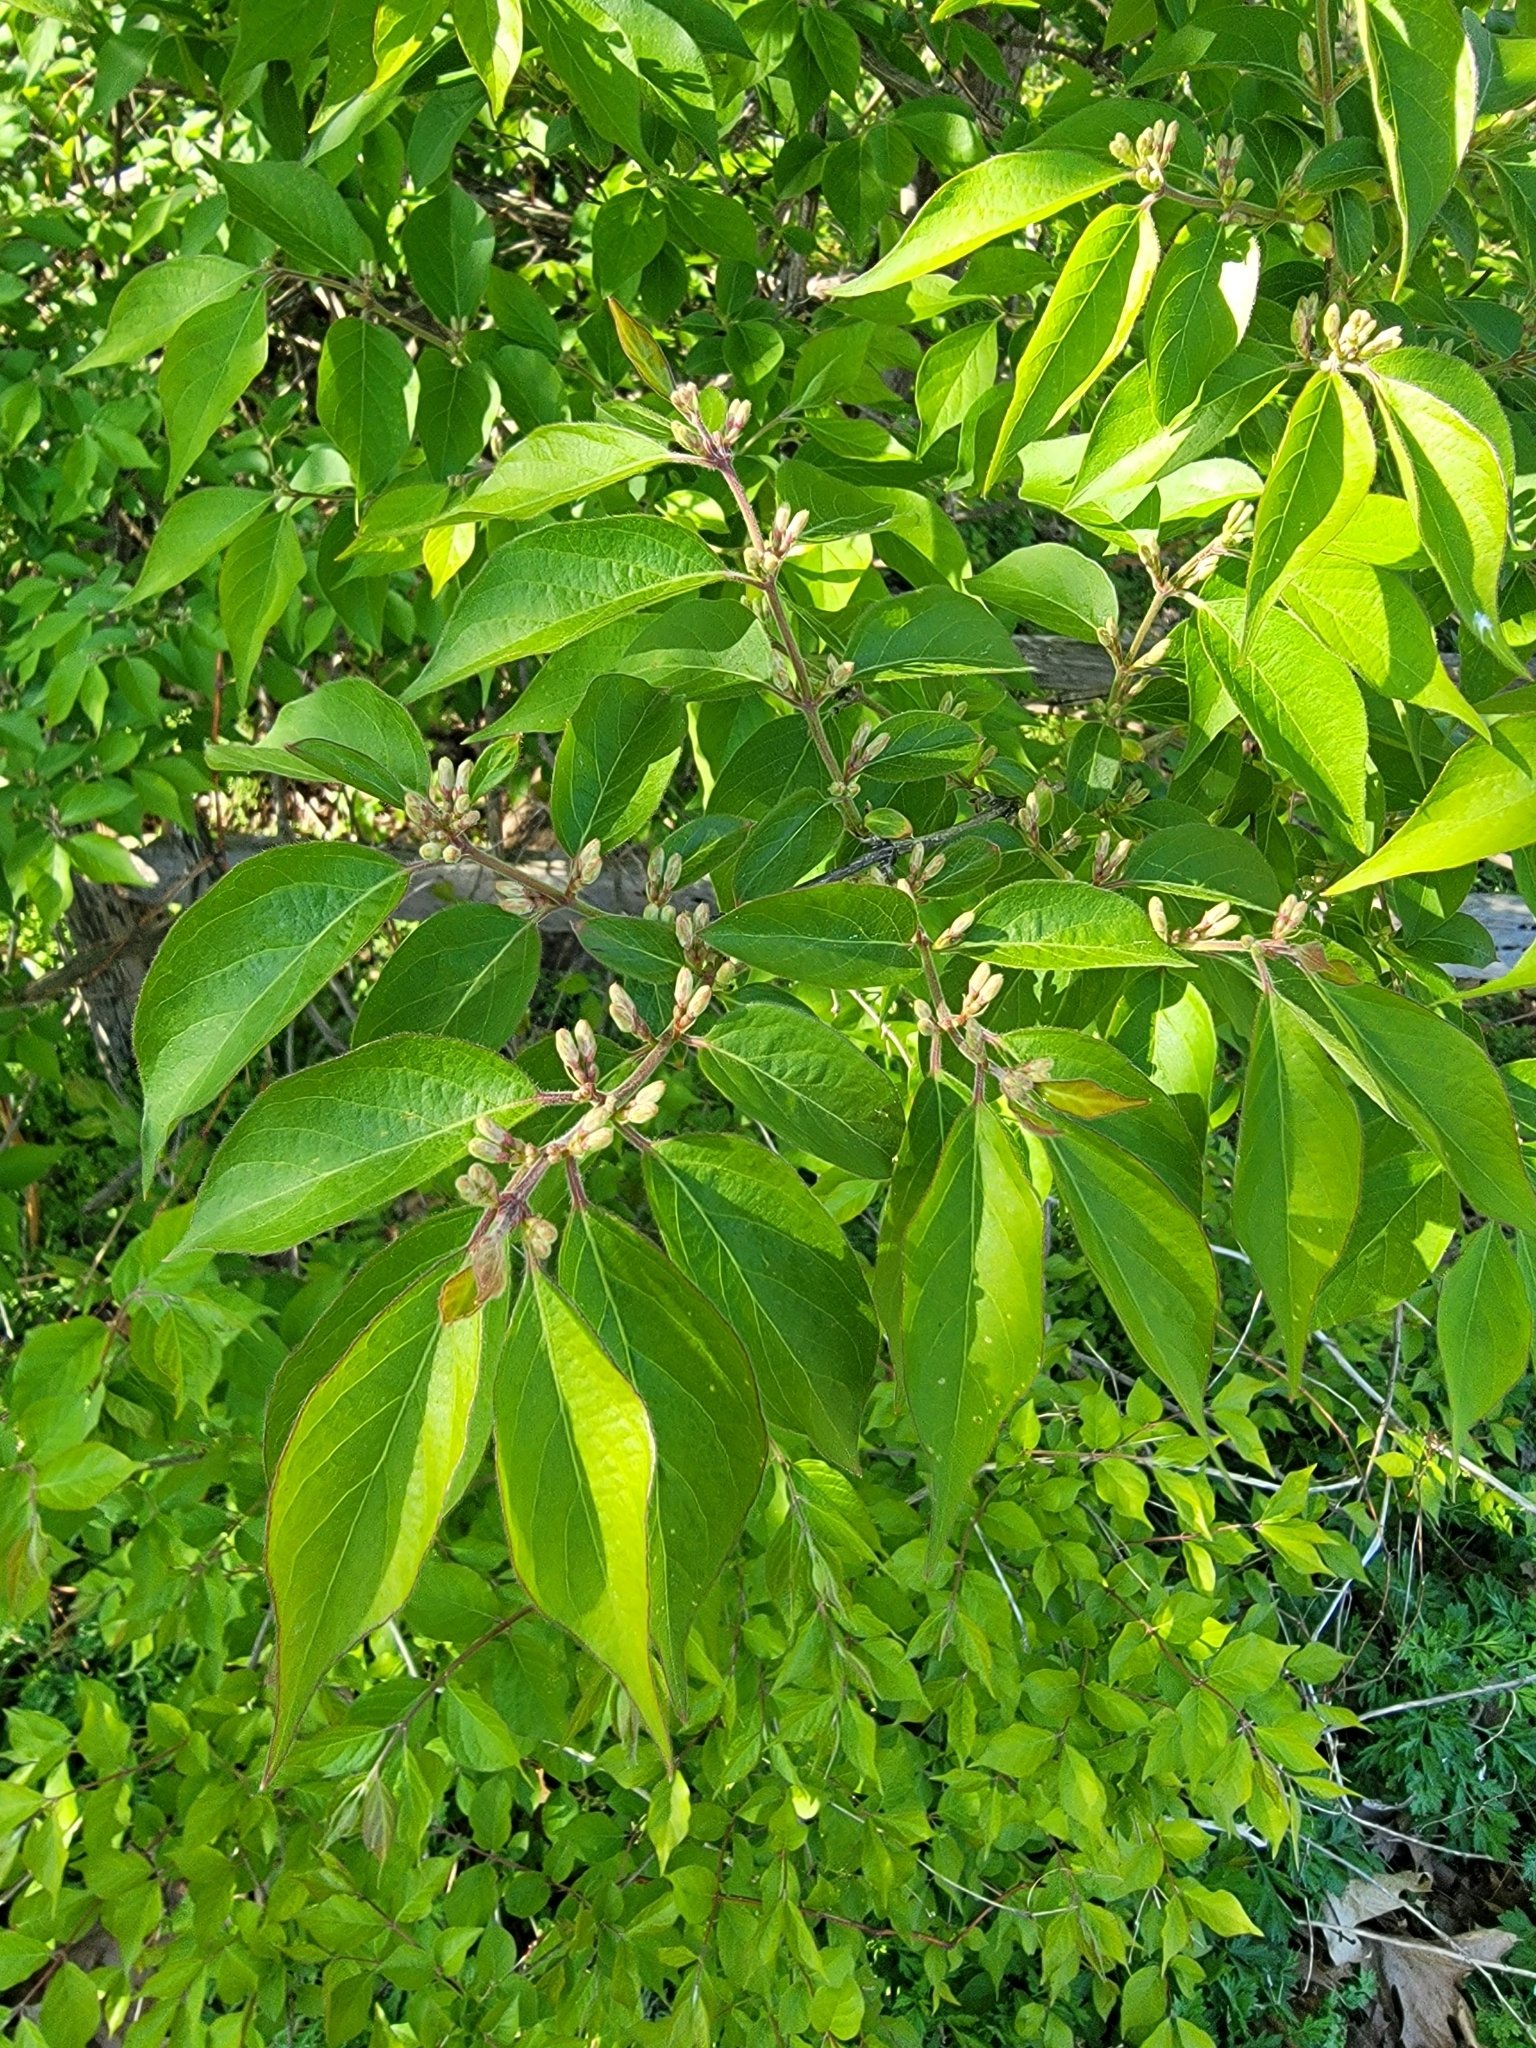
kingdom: Plantae
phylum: Tracheophyta
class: Magnoliopsida
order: Dipsacales
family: Caprifoliaceae
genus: Lonicera
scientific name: Lonicera maackii
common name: Amur honeysuckle
